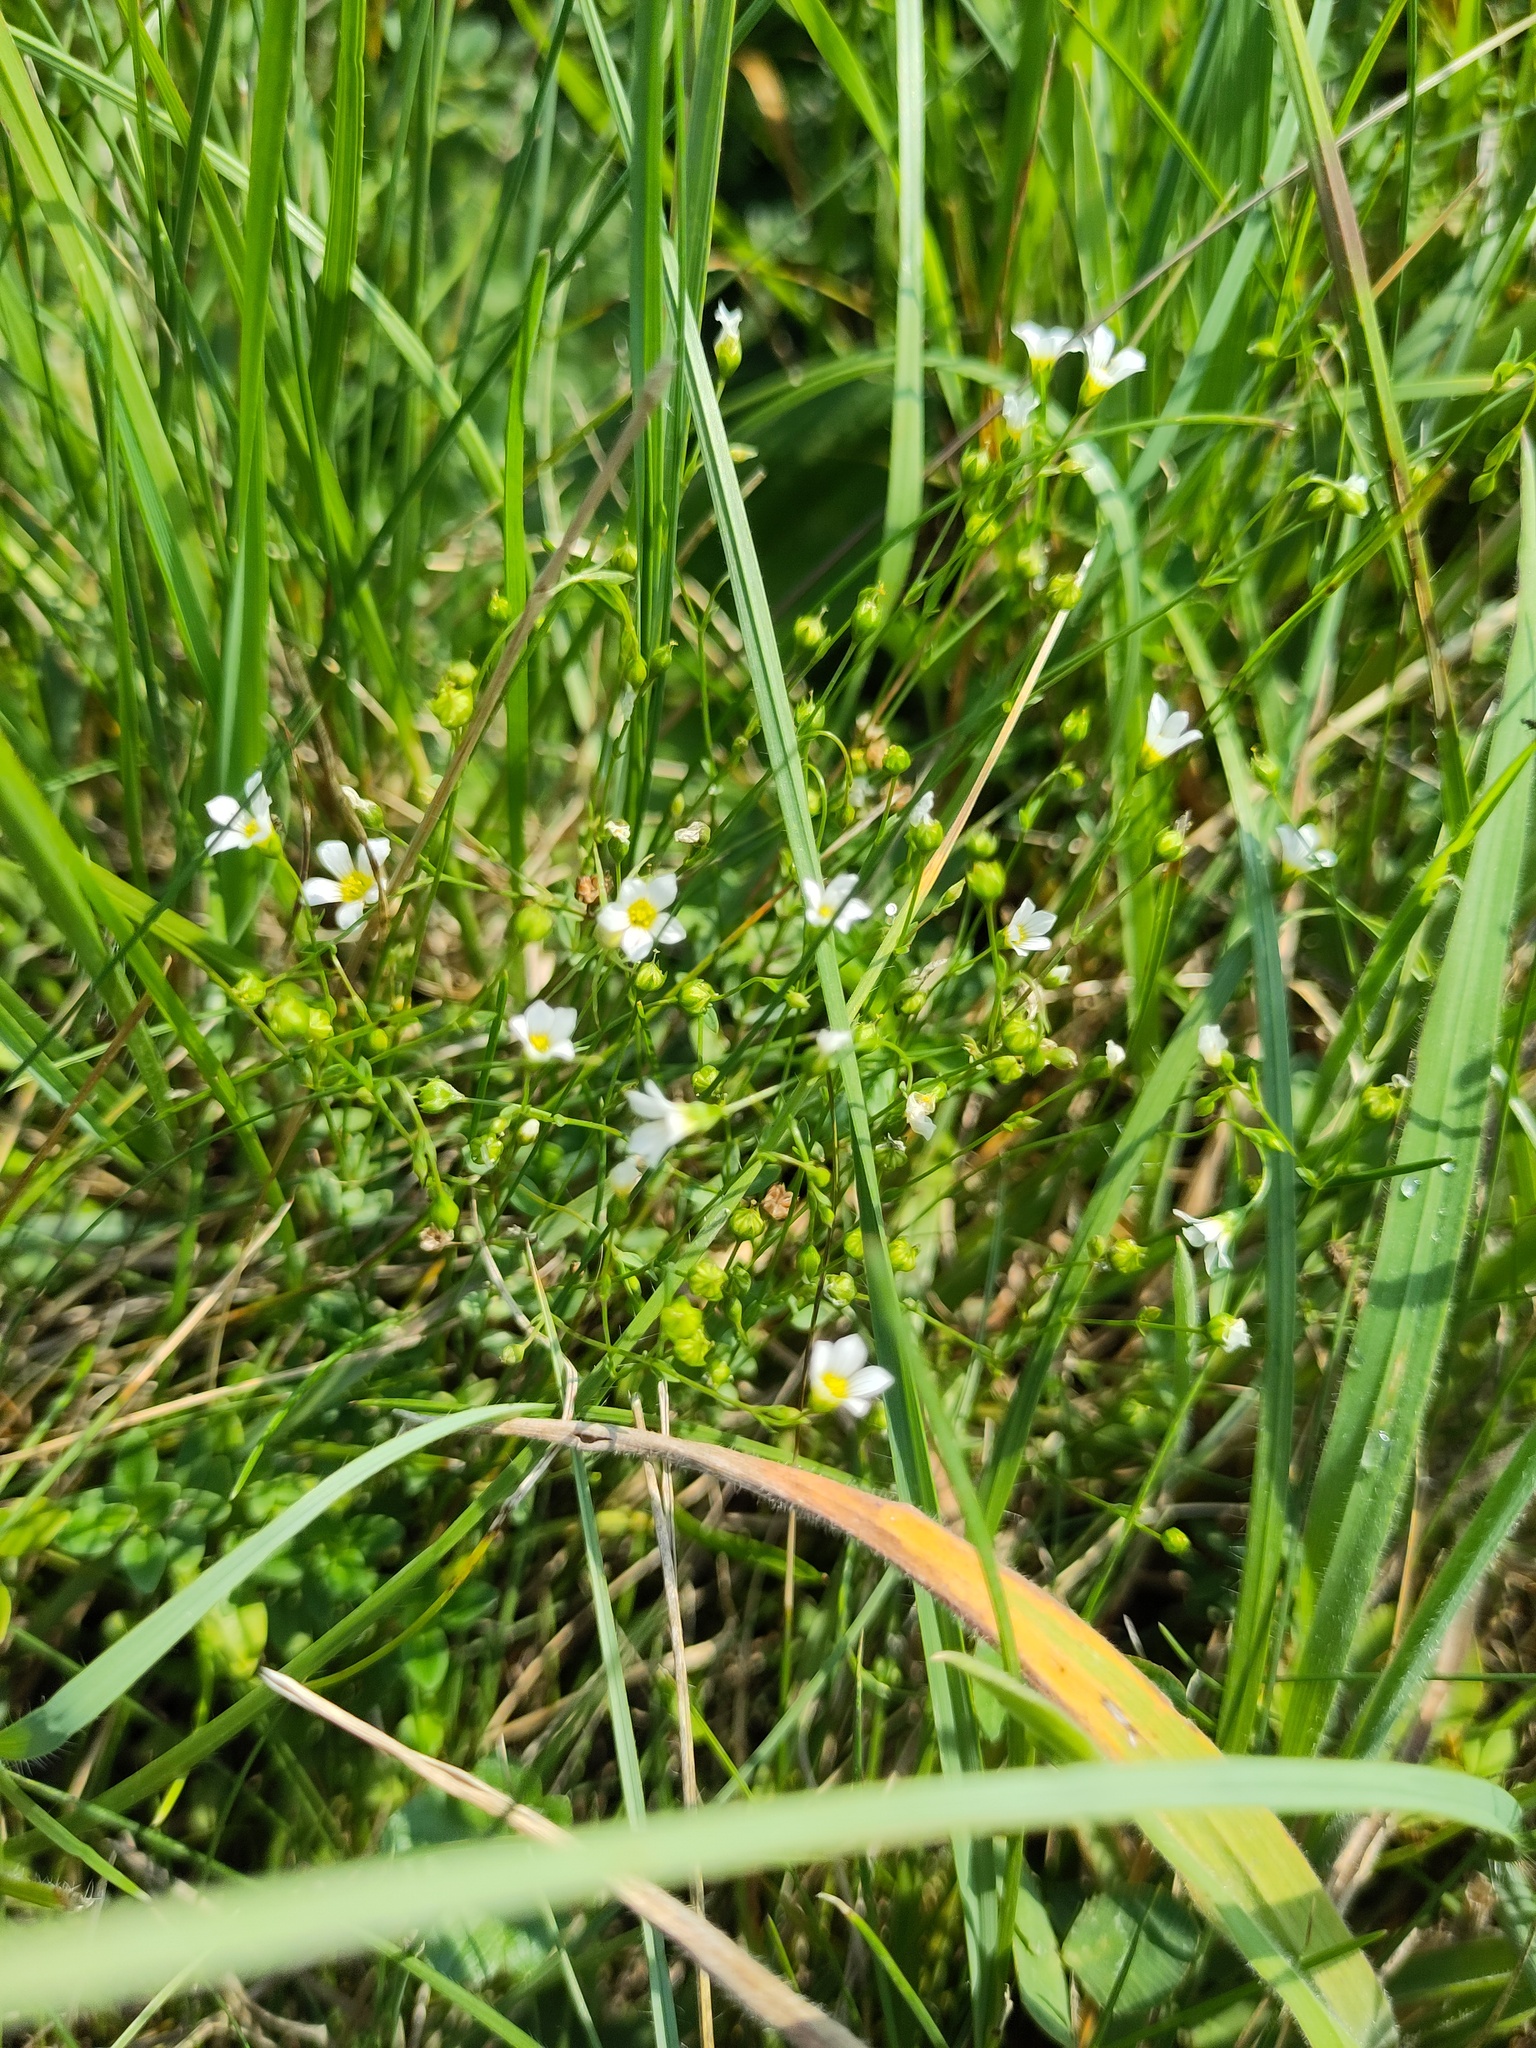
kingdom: Plantae
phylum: Tracheophyta
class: Magnoliopsida
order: Malpighiales
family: Linaceae
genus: Linum
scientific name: Linum catharticum
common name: Fairy flax
